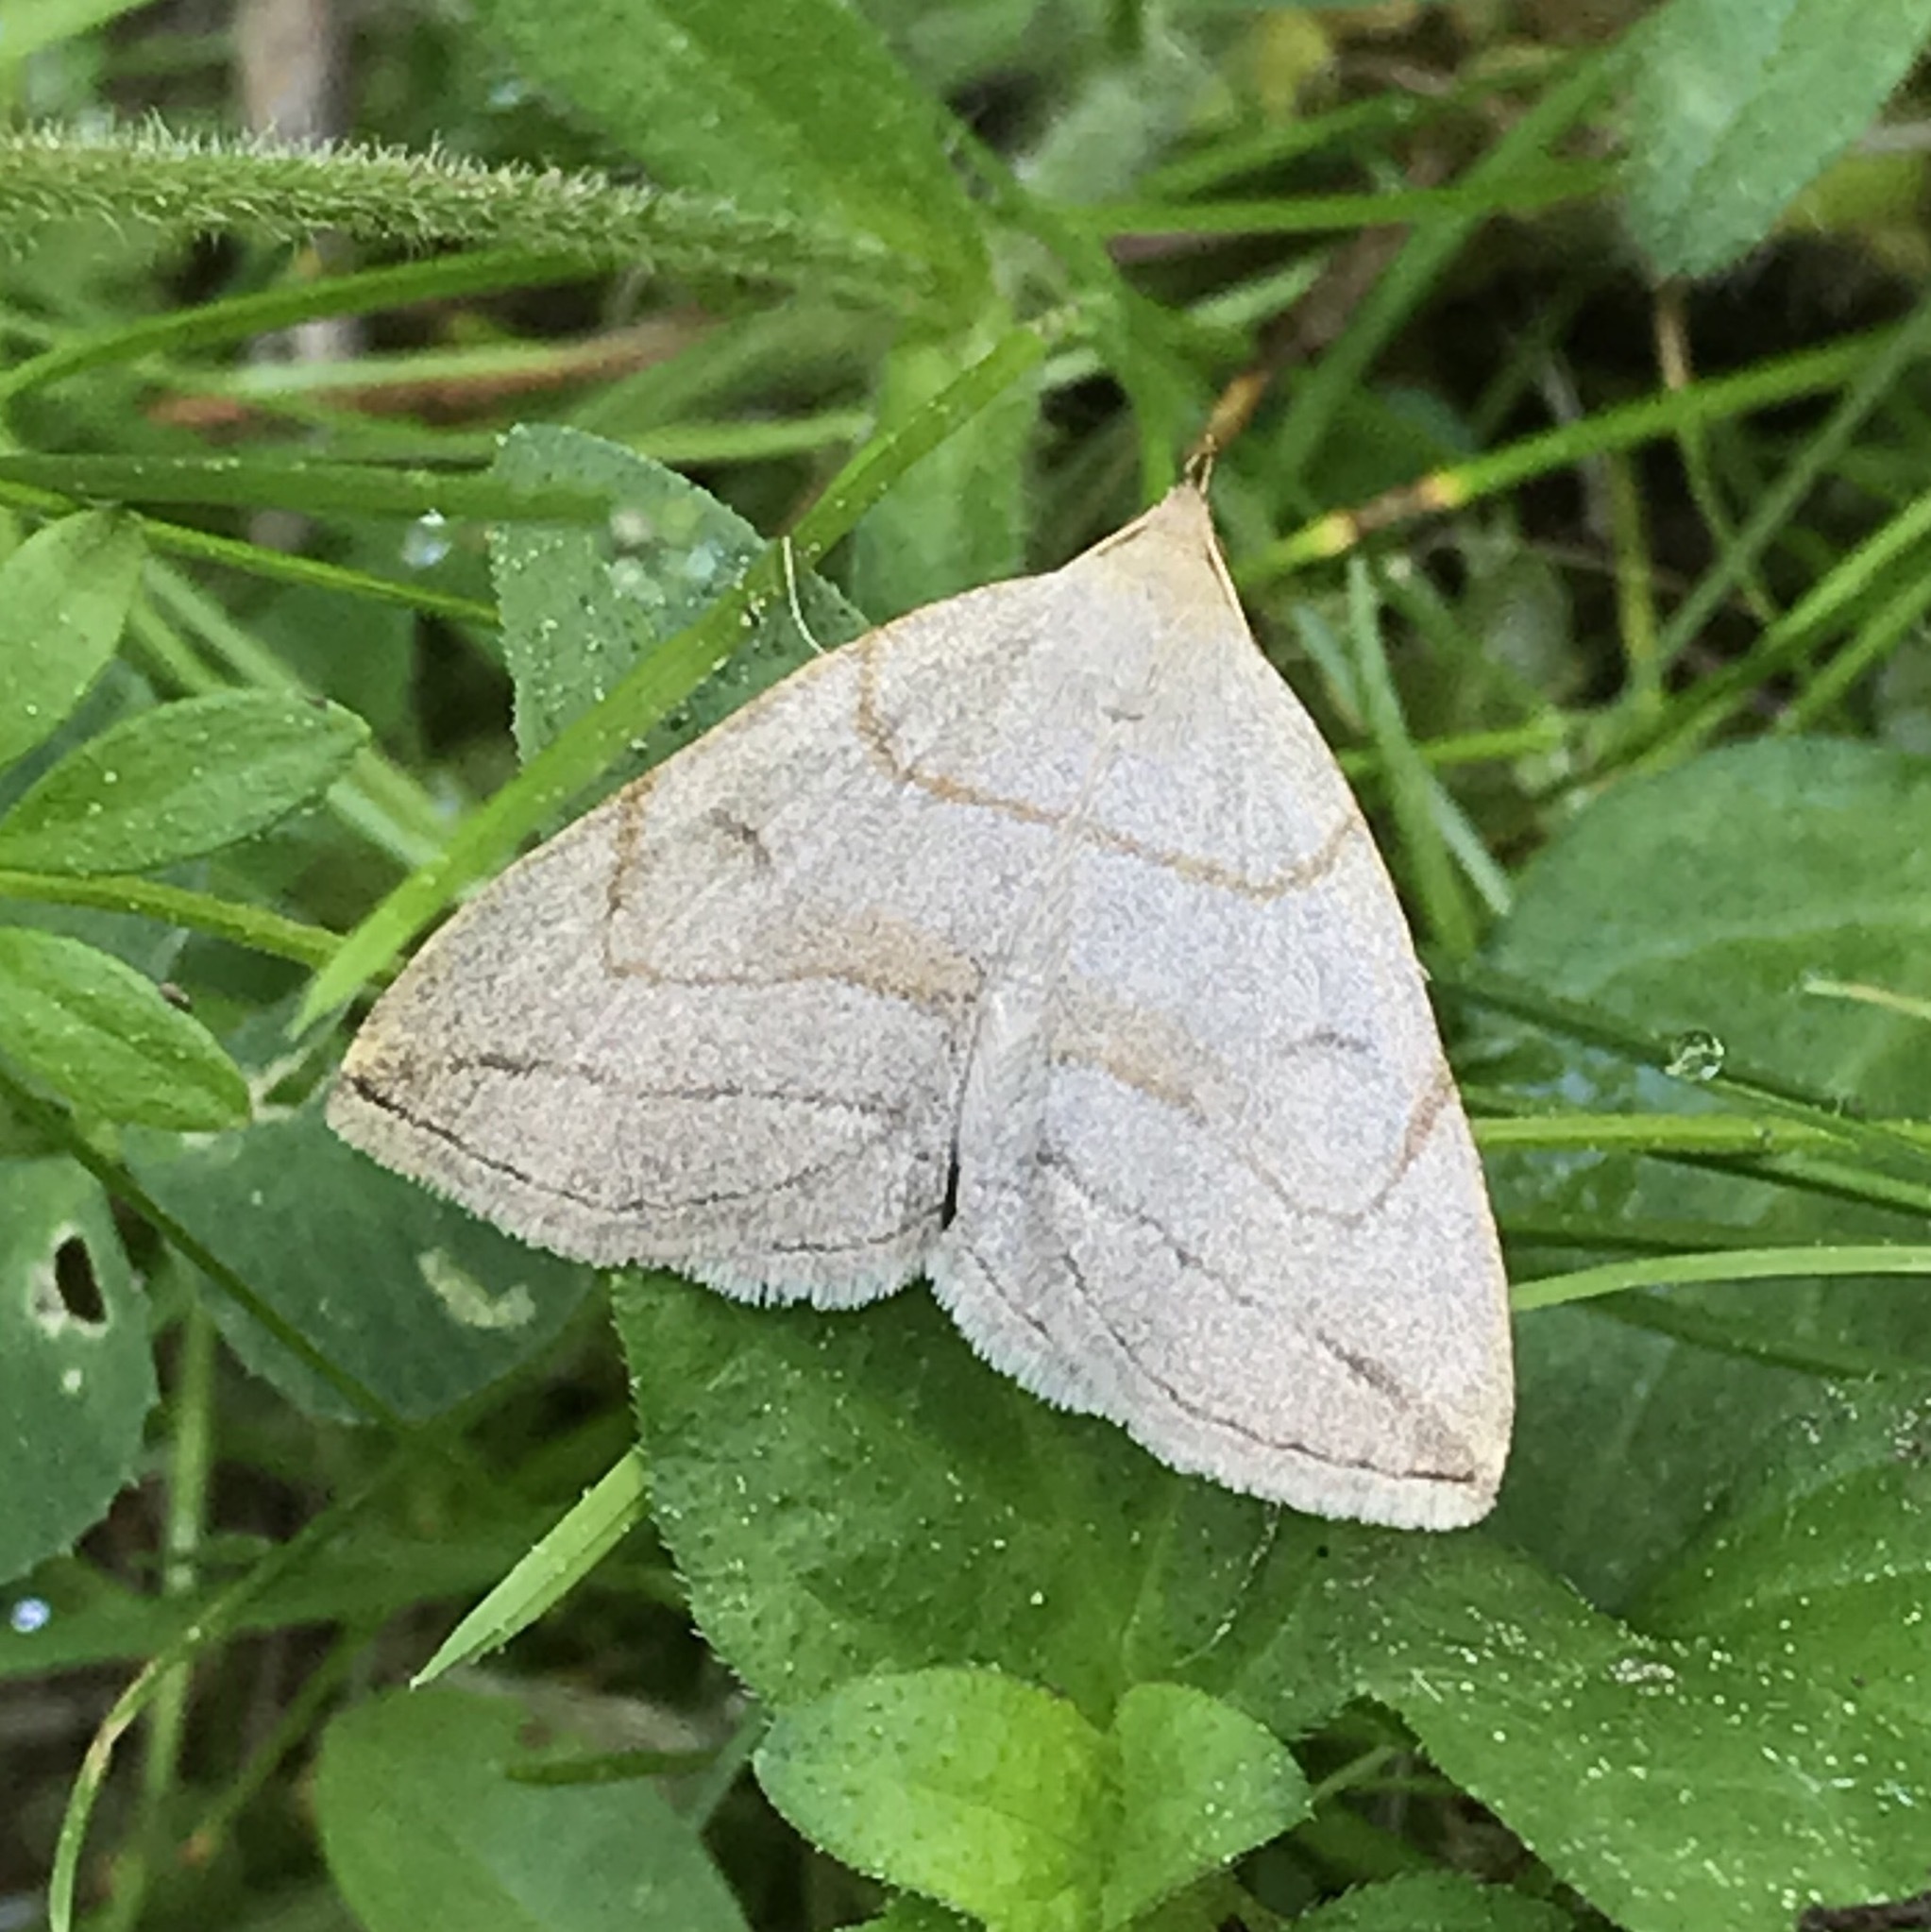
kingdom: Animalia
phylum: Arthropoda
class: Insecta
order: Lepidoptera
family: Erebidae
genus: Zanclognatha
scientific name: Zanclognatha pedipilalis
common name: Grayish fan-foot
